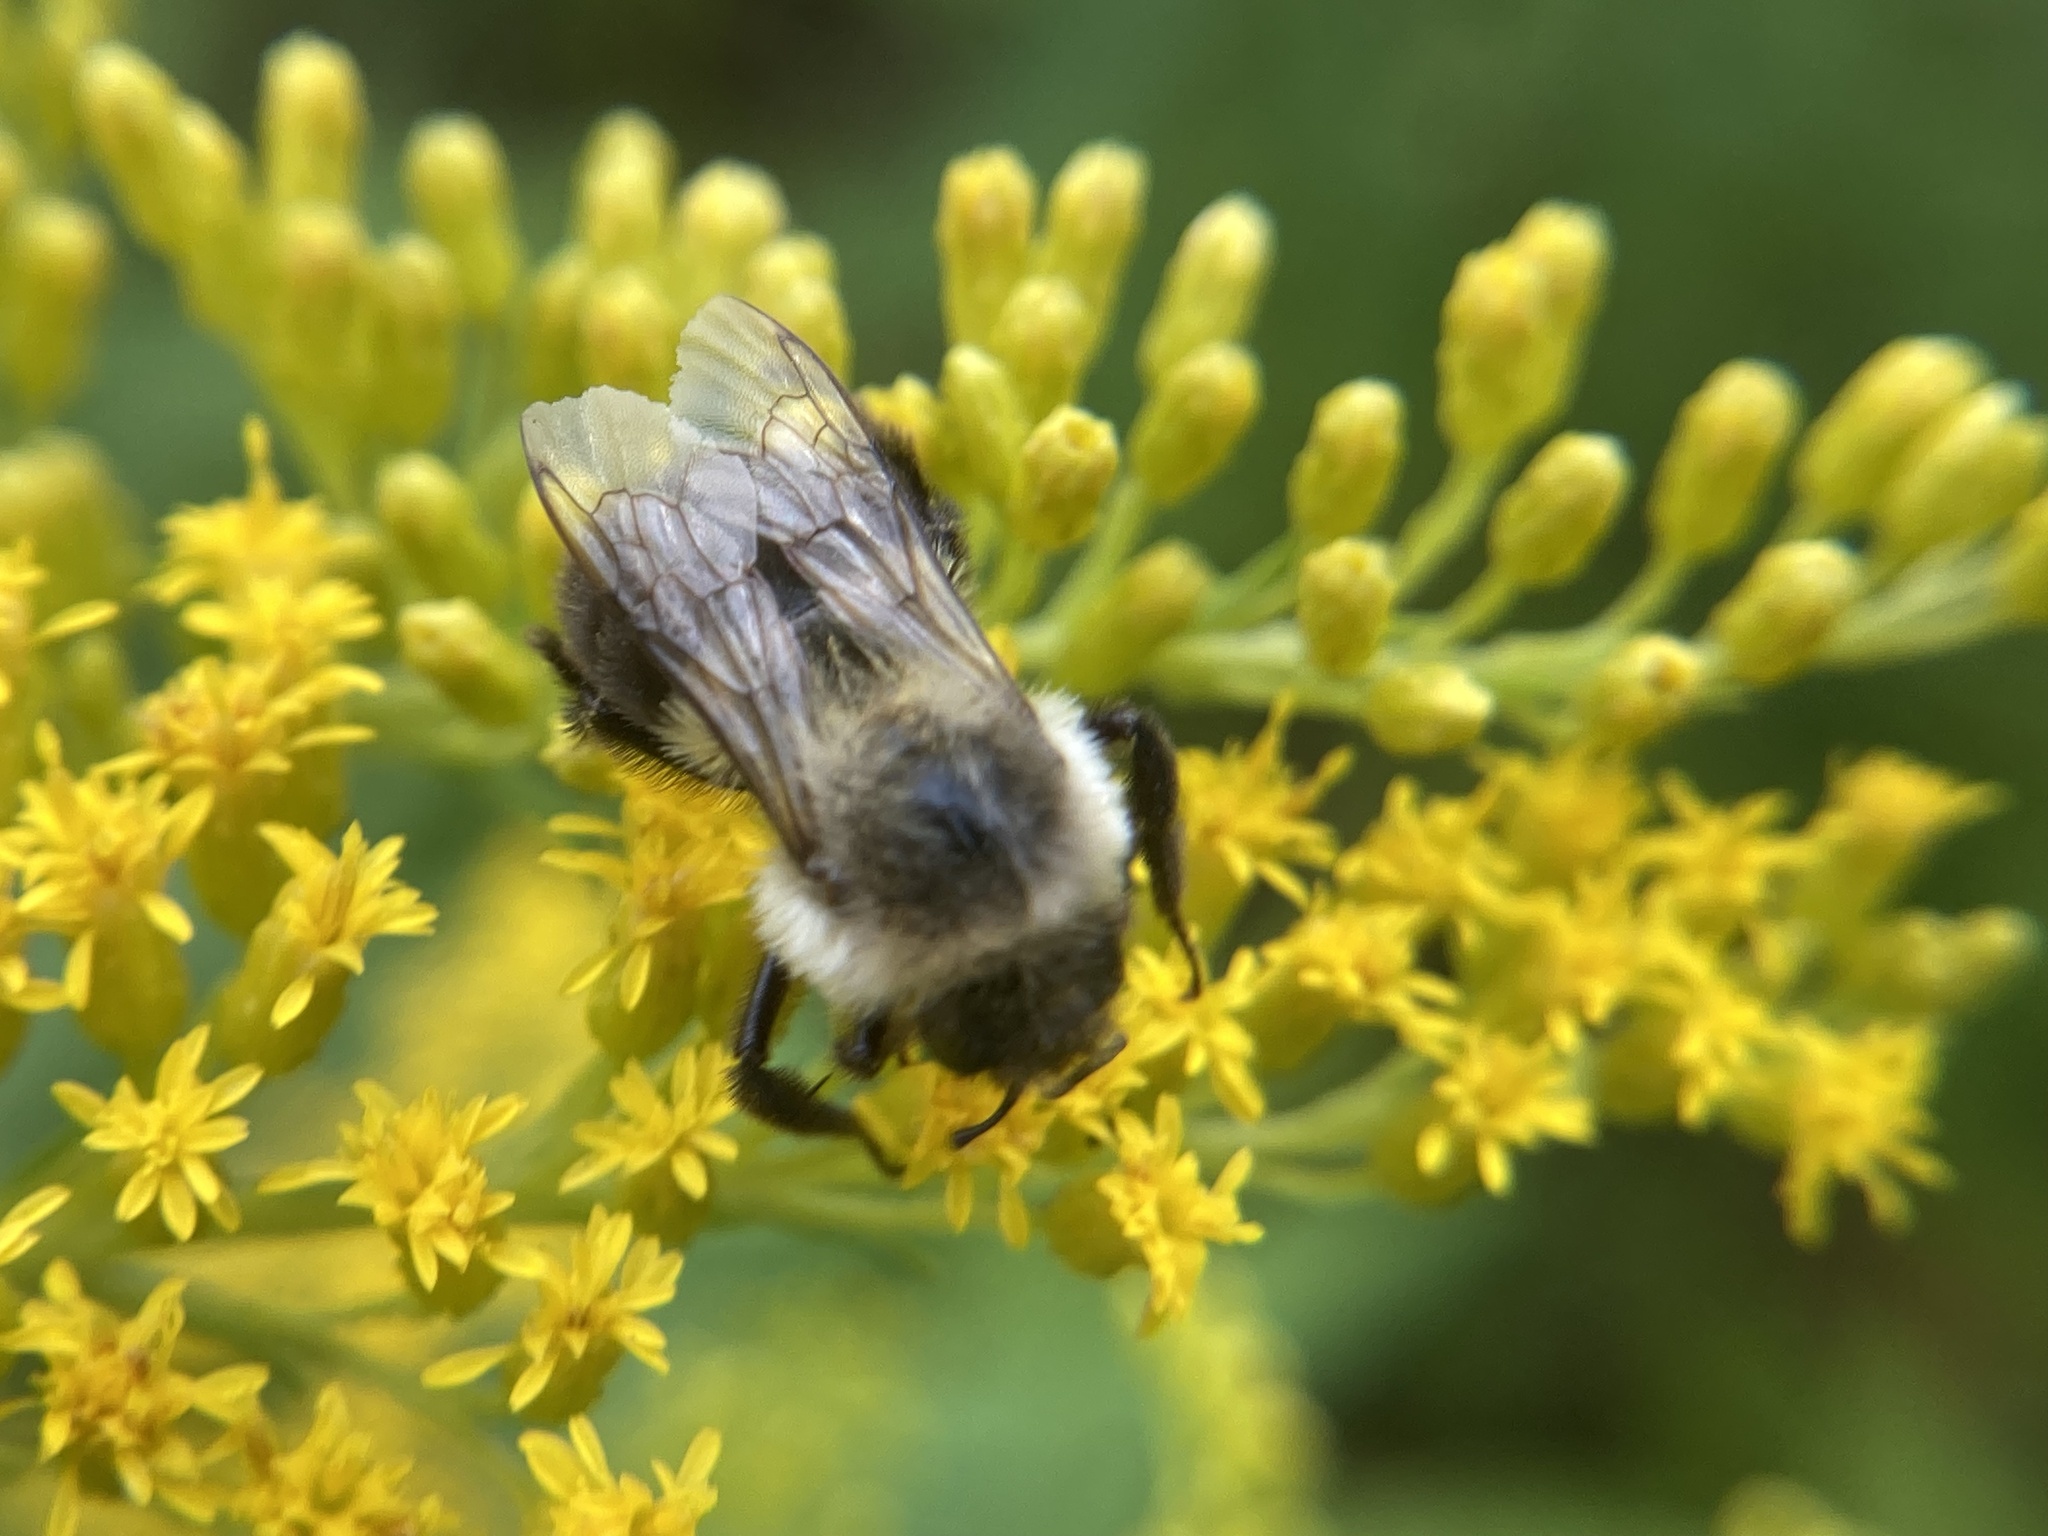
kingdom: Animalia
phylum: Arthropoda
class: Insecta
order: Hymenoptera
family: Apidae
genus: Bombus
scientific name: Bombus impatiens
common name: Common eastern bumble bee
